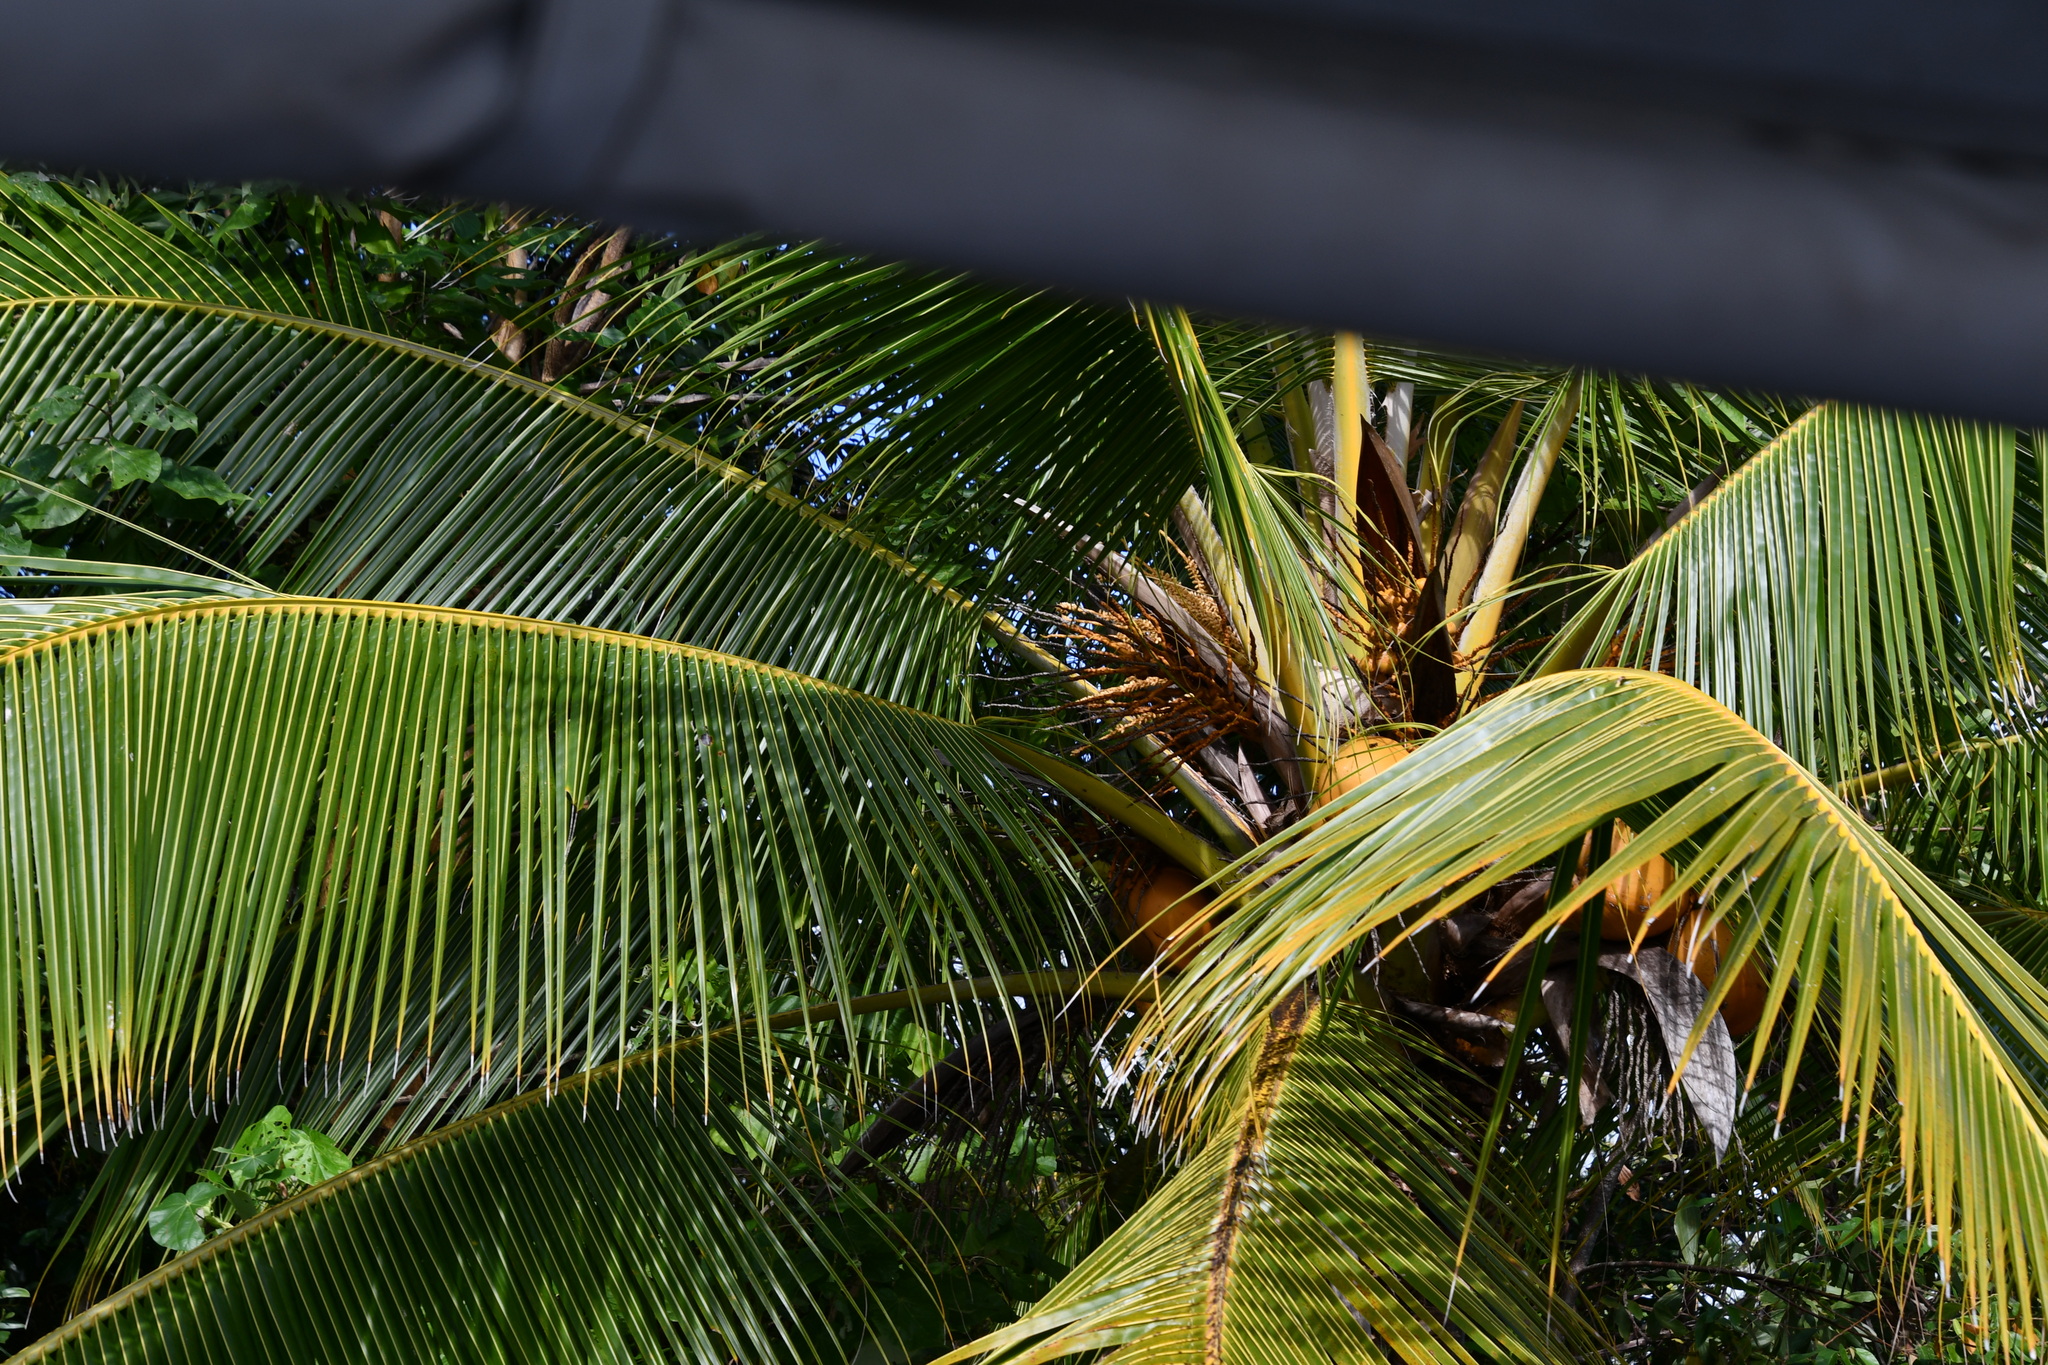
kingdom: Plantae
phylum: Tracheophyta
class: Liliopsida
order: Arecales
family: Arecaceae
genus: Cocos
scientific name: Cocos nucifera
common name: Coconut palm
